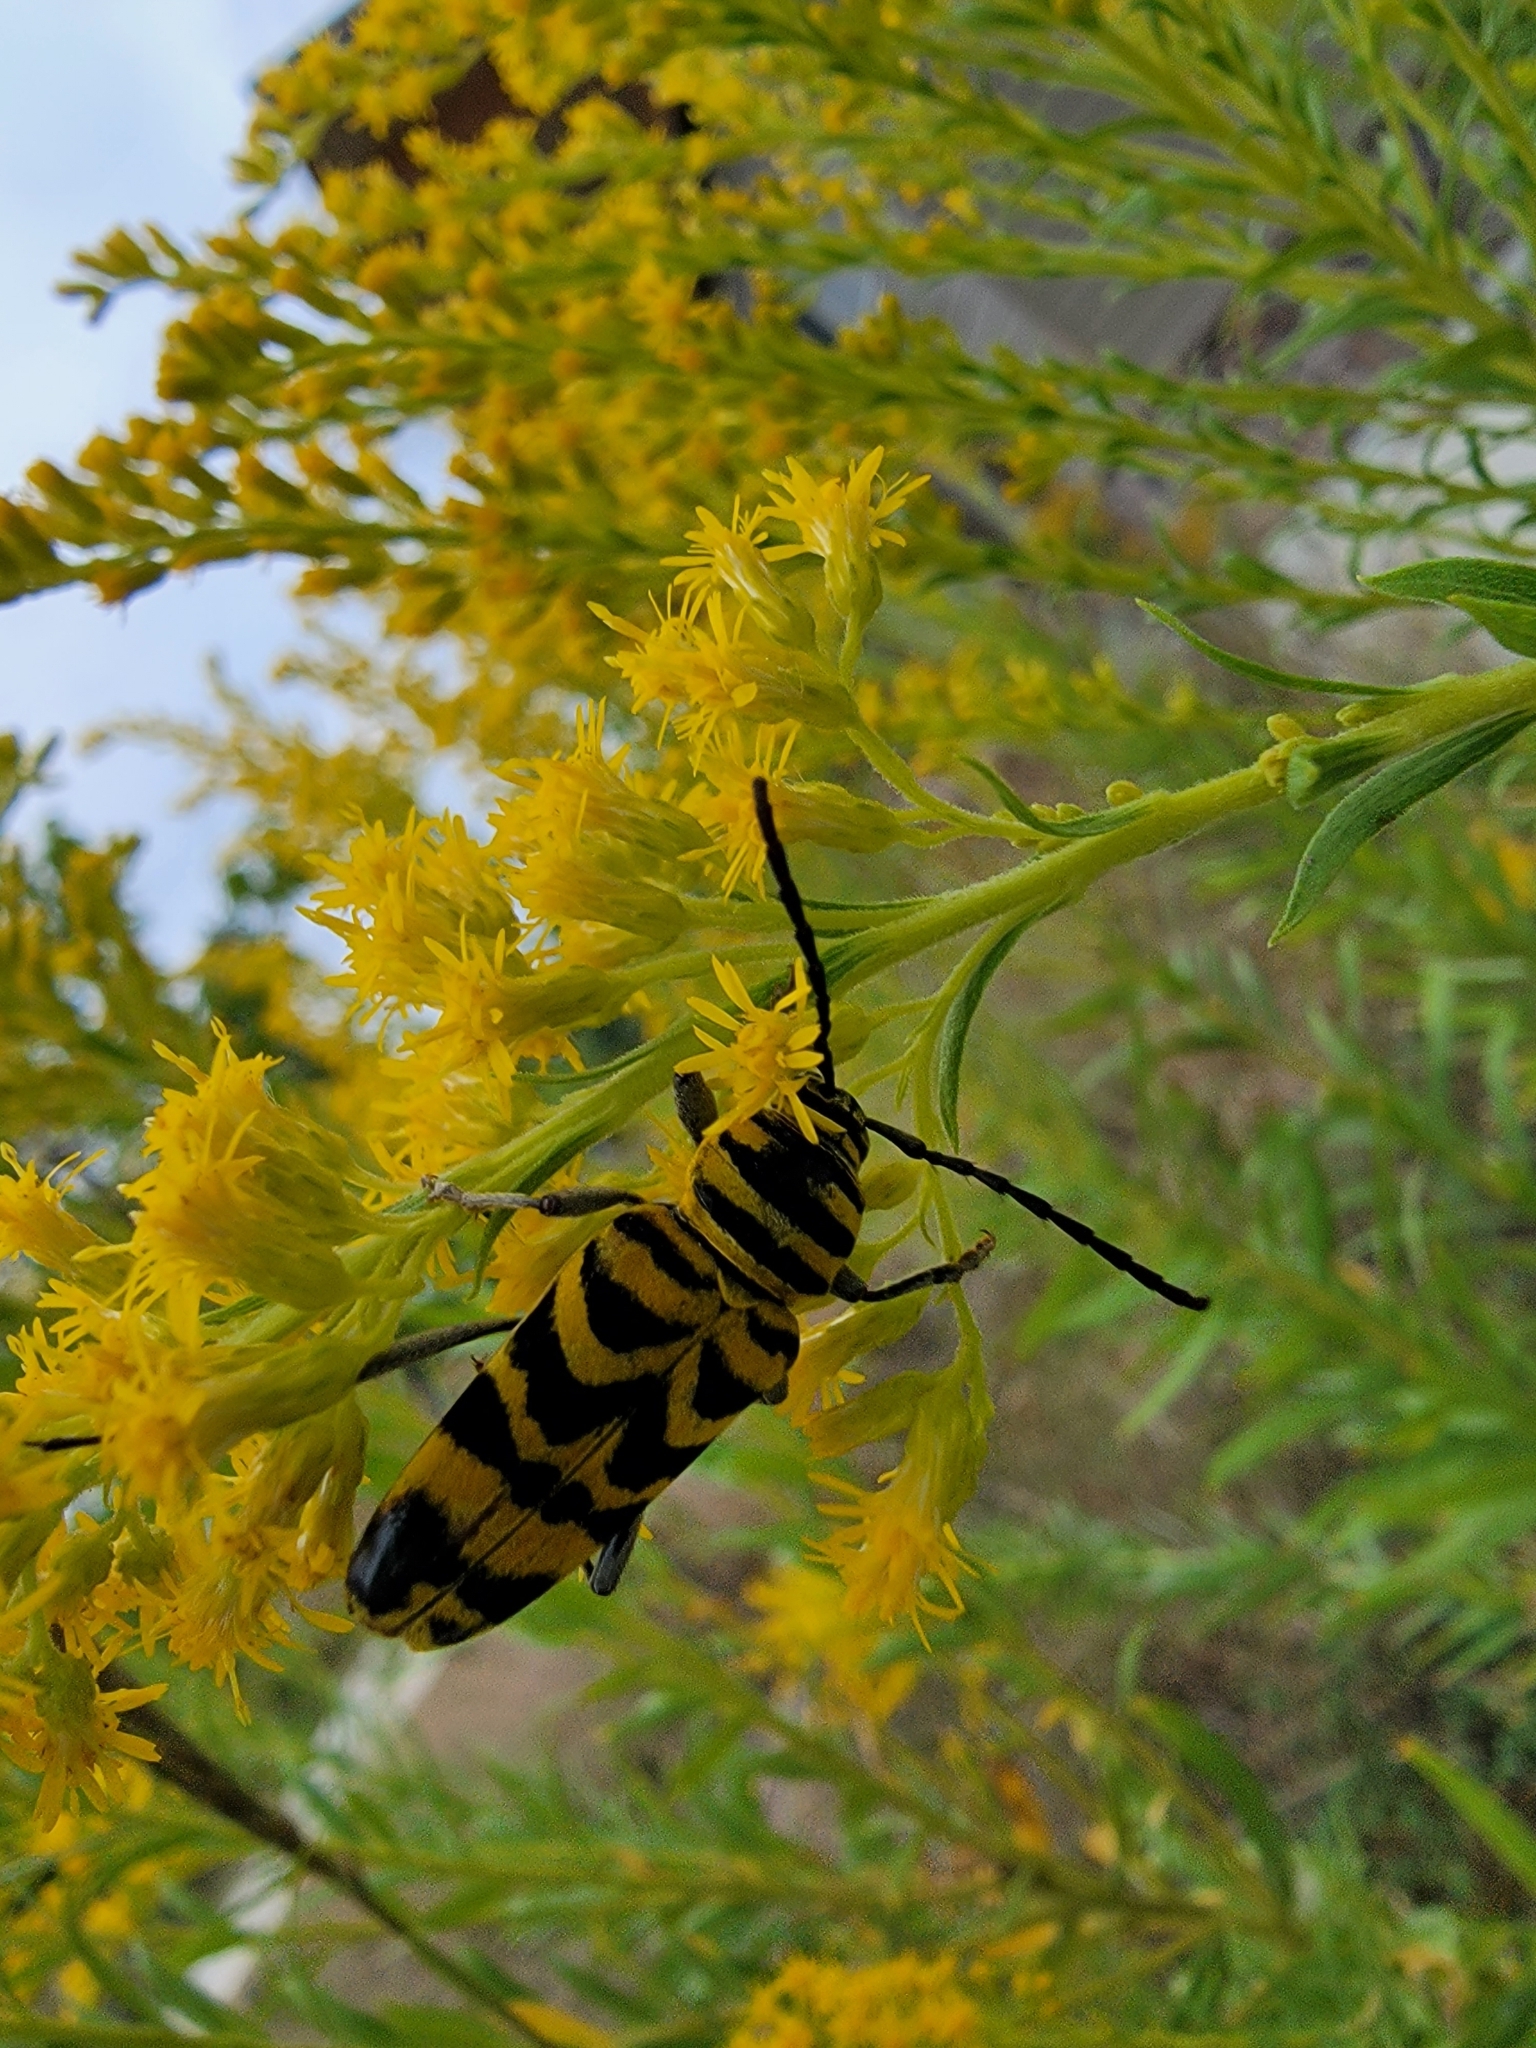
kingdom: Animalia
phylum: Arthropoda
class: Insecta
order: Coleoptera
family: Cerambycidae
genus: Megacyllene
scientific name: Megacyllene decora
